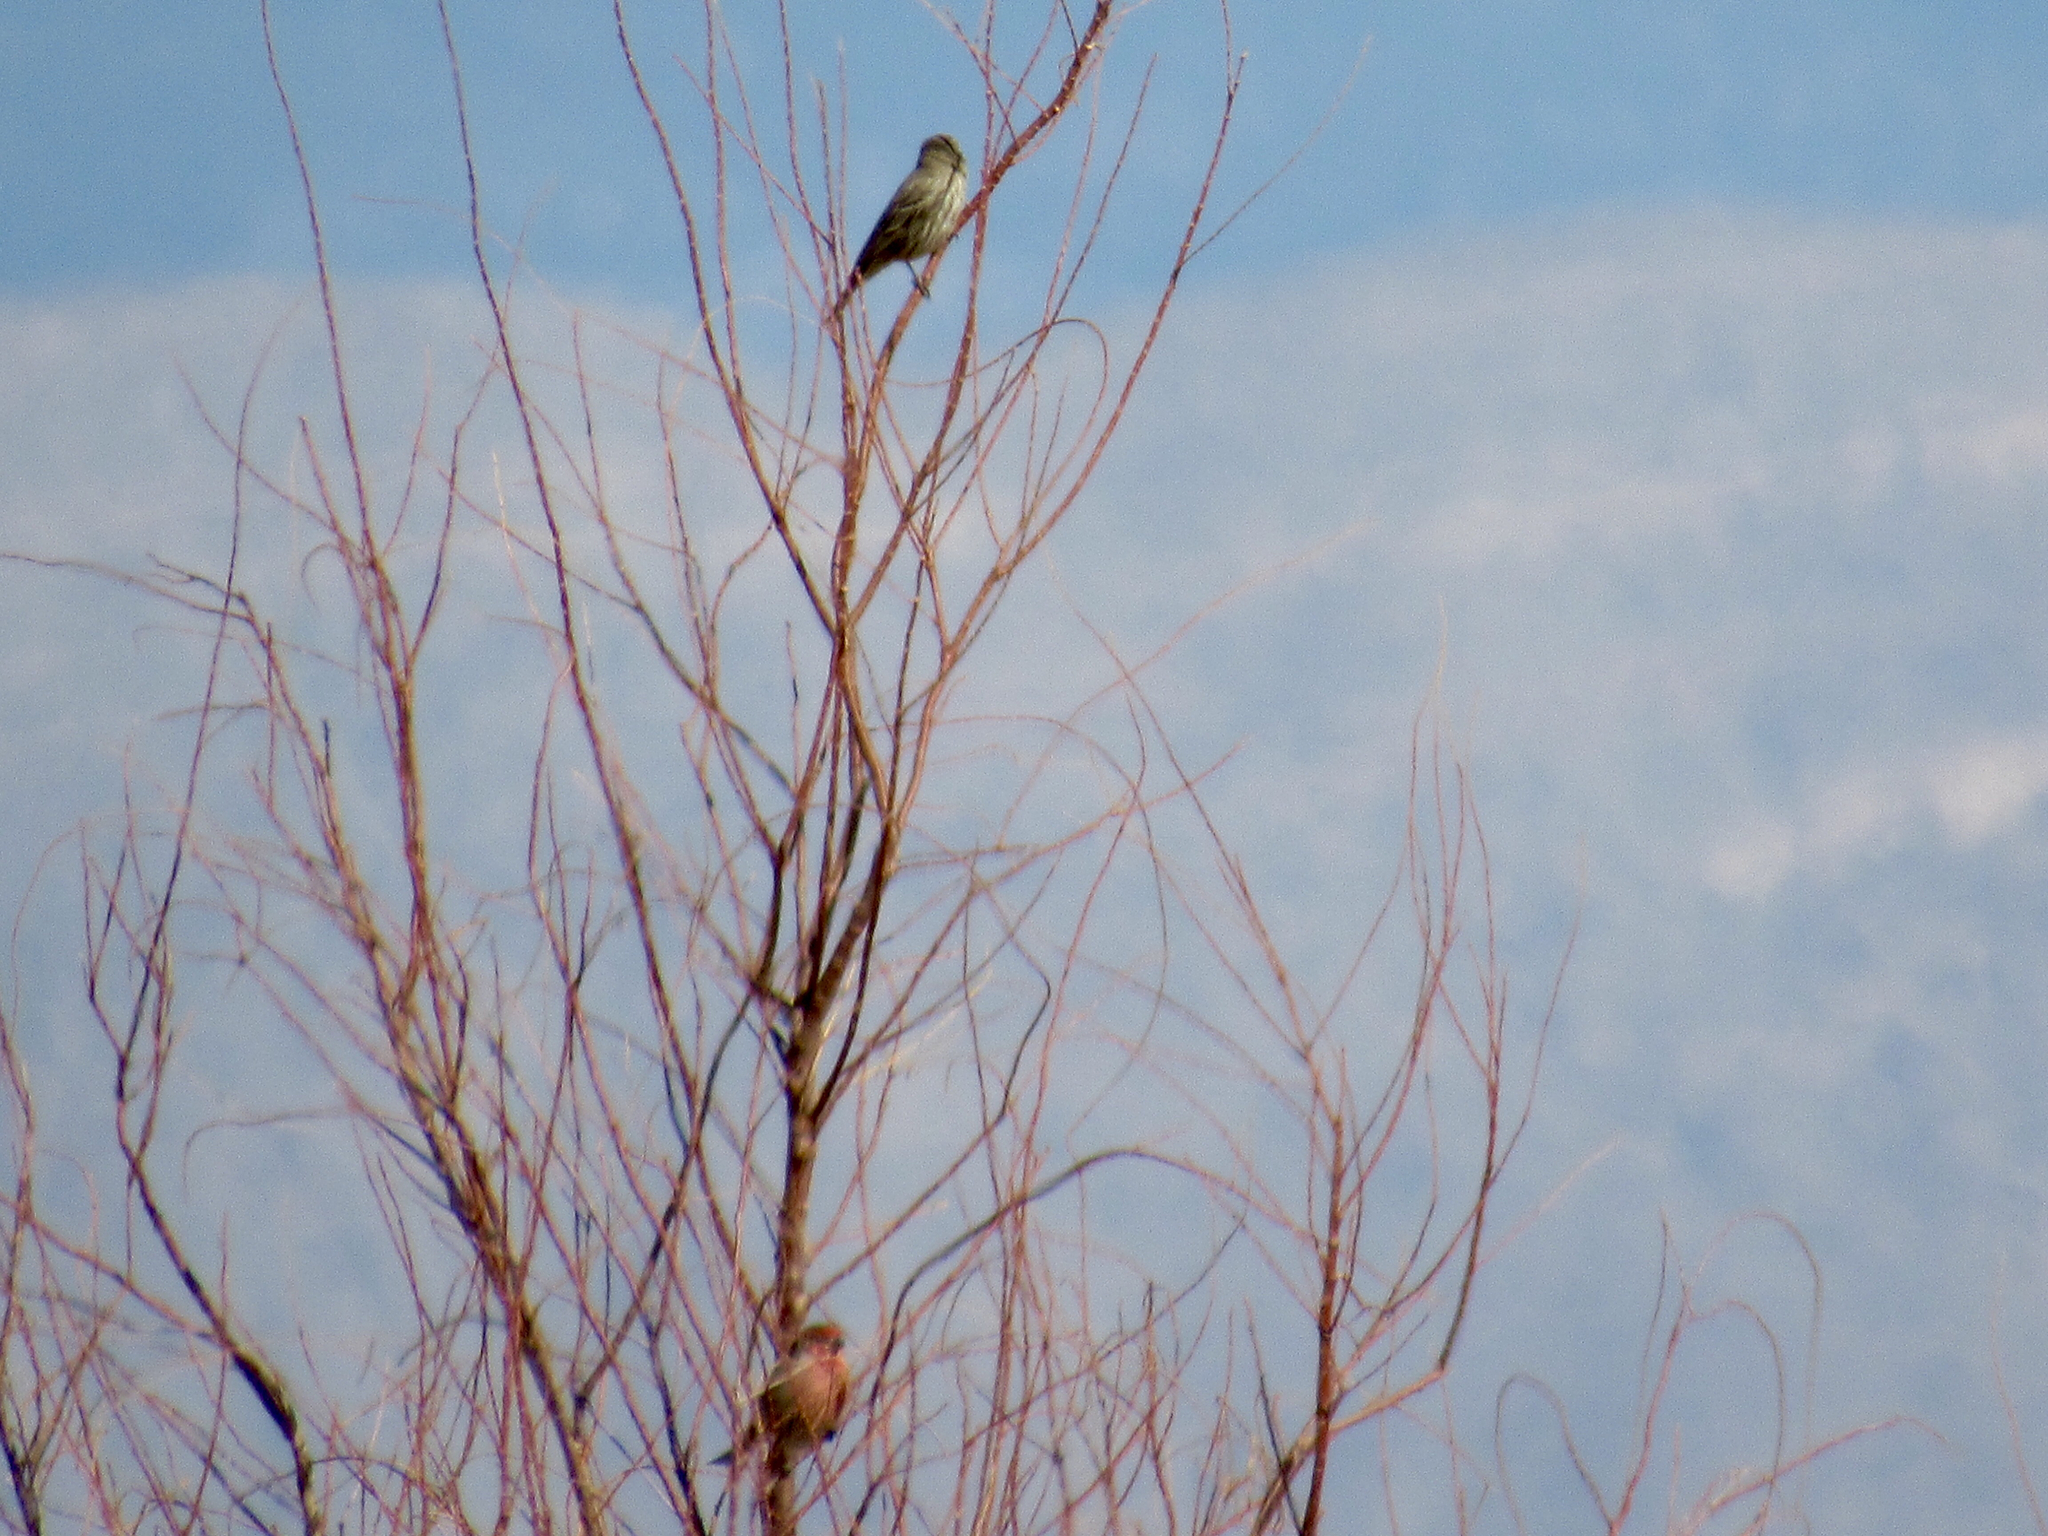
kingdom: Animalia
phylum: Chordata
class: Aves
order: Passeriformes
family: Fringillidae
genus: Haemorhous
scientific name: Haemorhous mexicanus
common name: House finch
